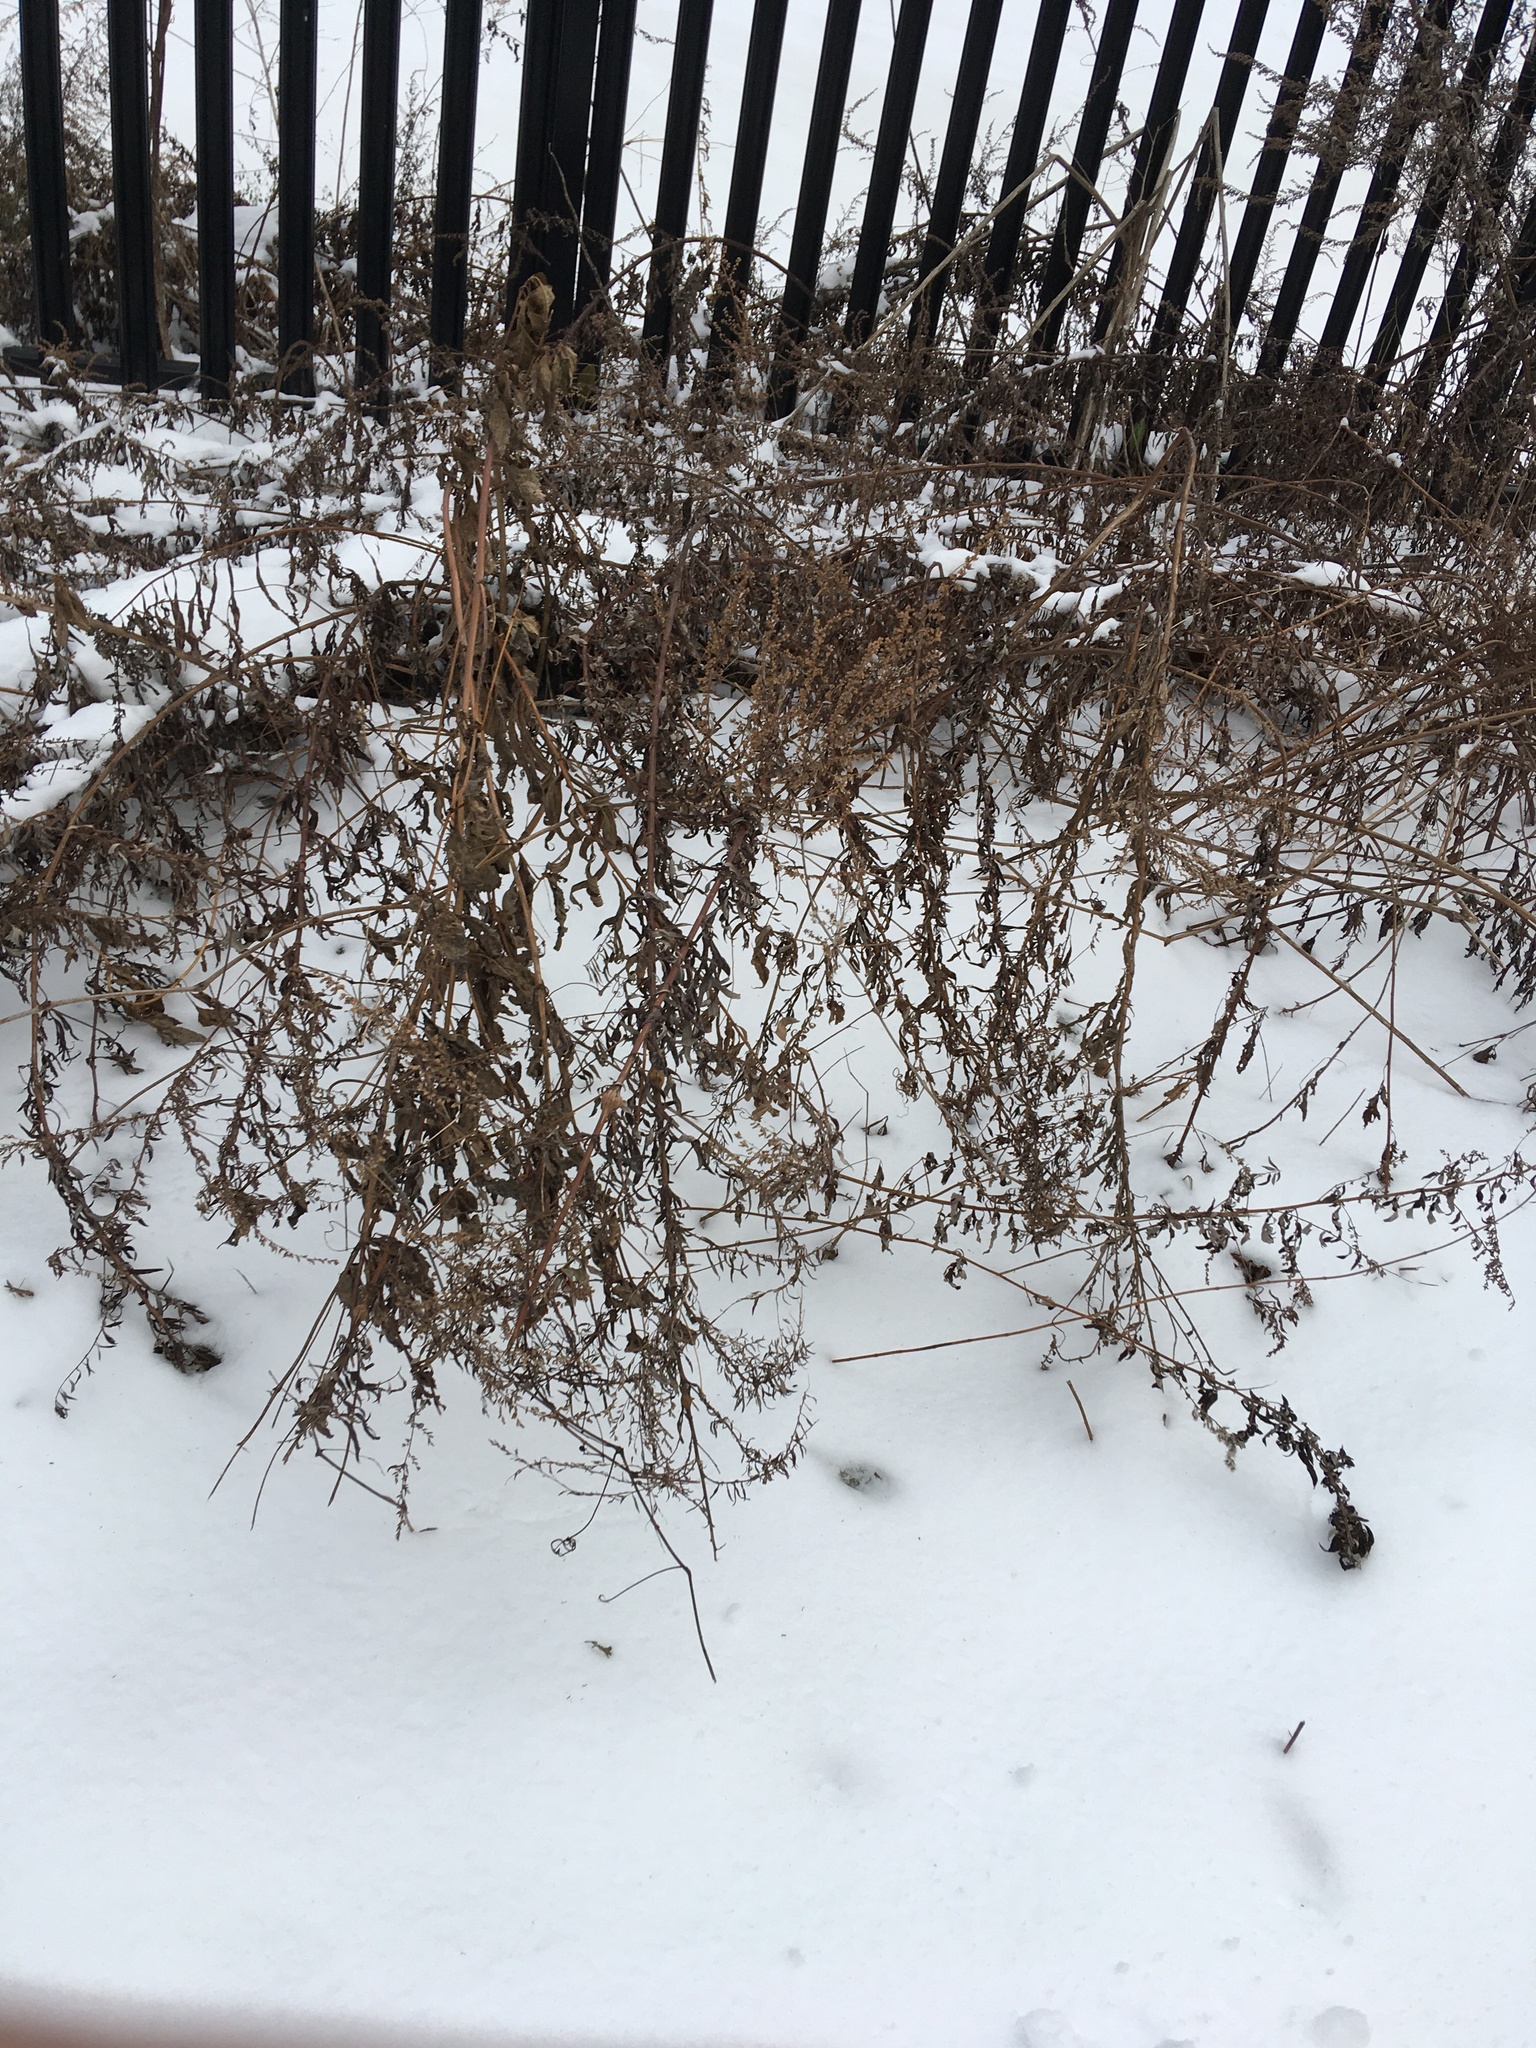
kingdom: Plantae
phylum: Tracheophyta
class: Magnoliopsida
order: Asterales
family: Asteraceae
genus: Artemisia
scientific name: Artemisia vulgaris
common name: Mugwort
